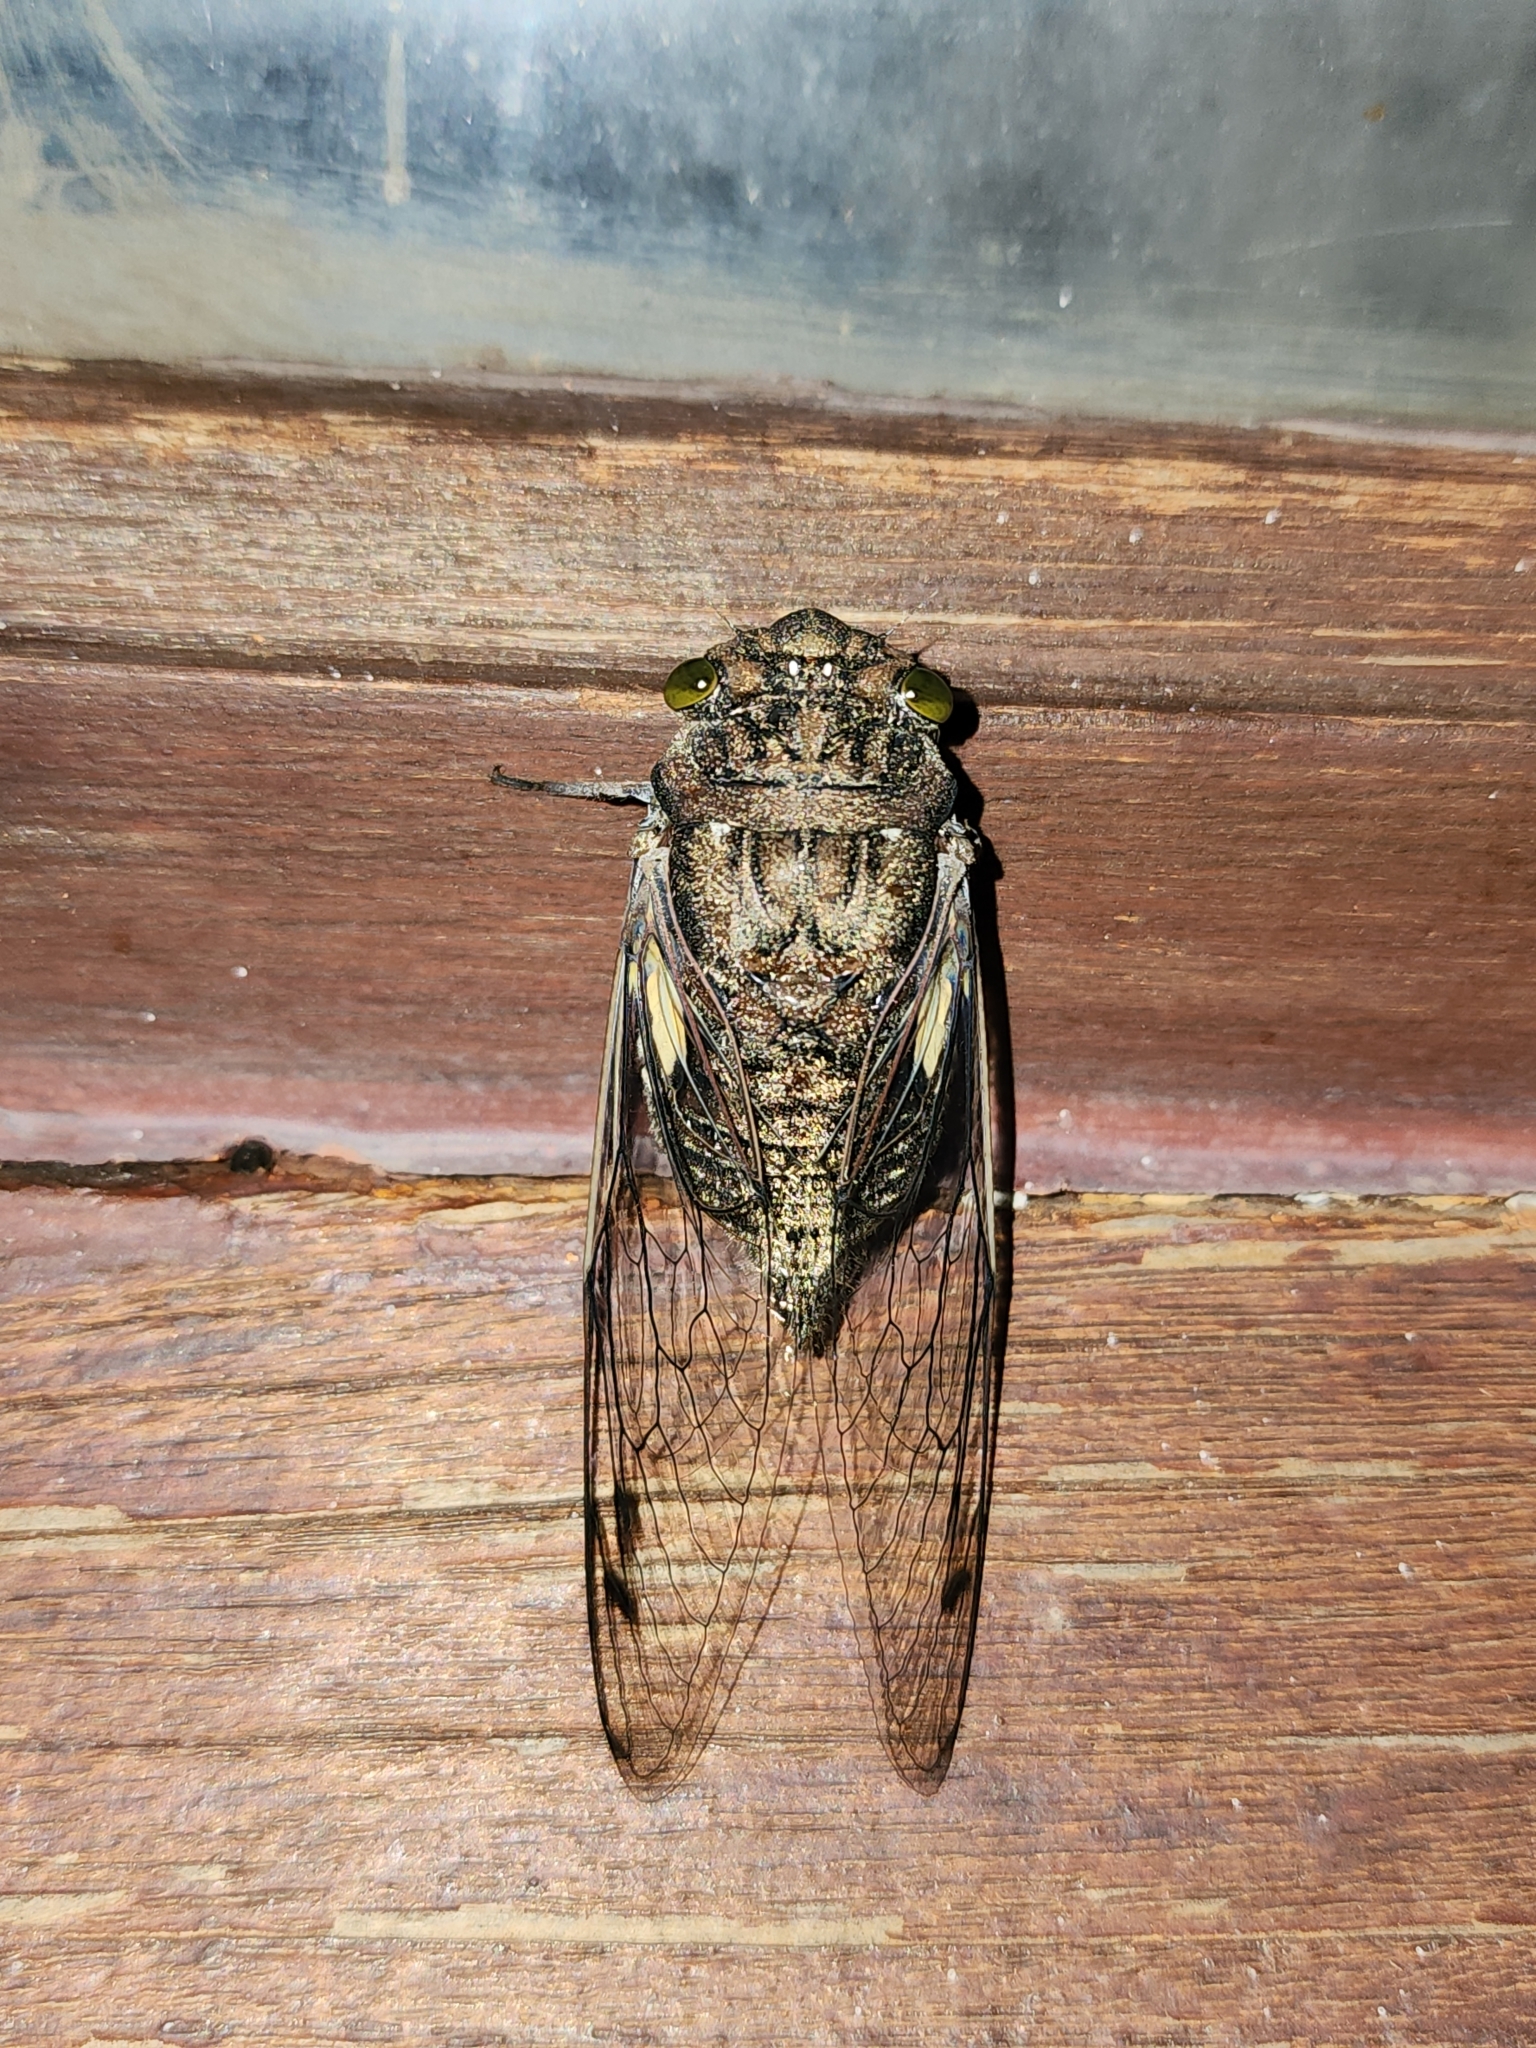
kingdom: Animalia
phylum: Arthropoda
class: Insecta
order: Hemiptera
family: Cicadidae
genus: Quesada
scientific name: Quesada gigas
